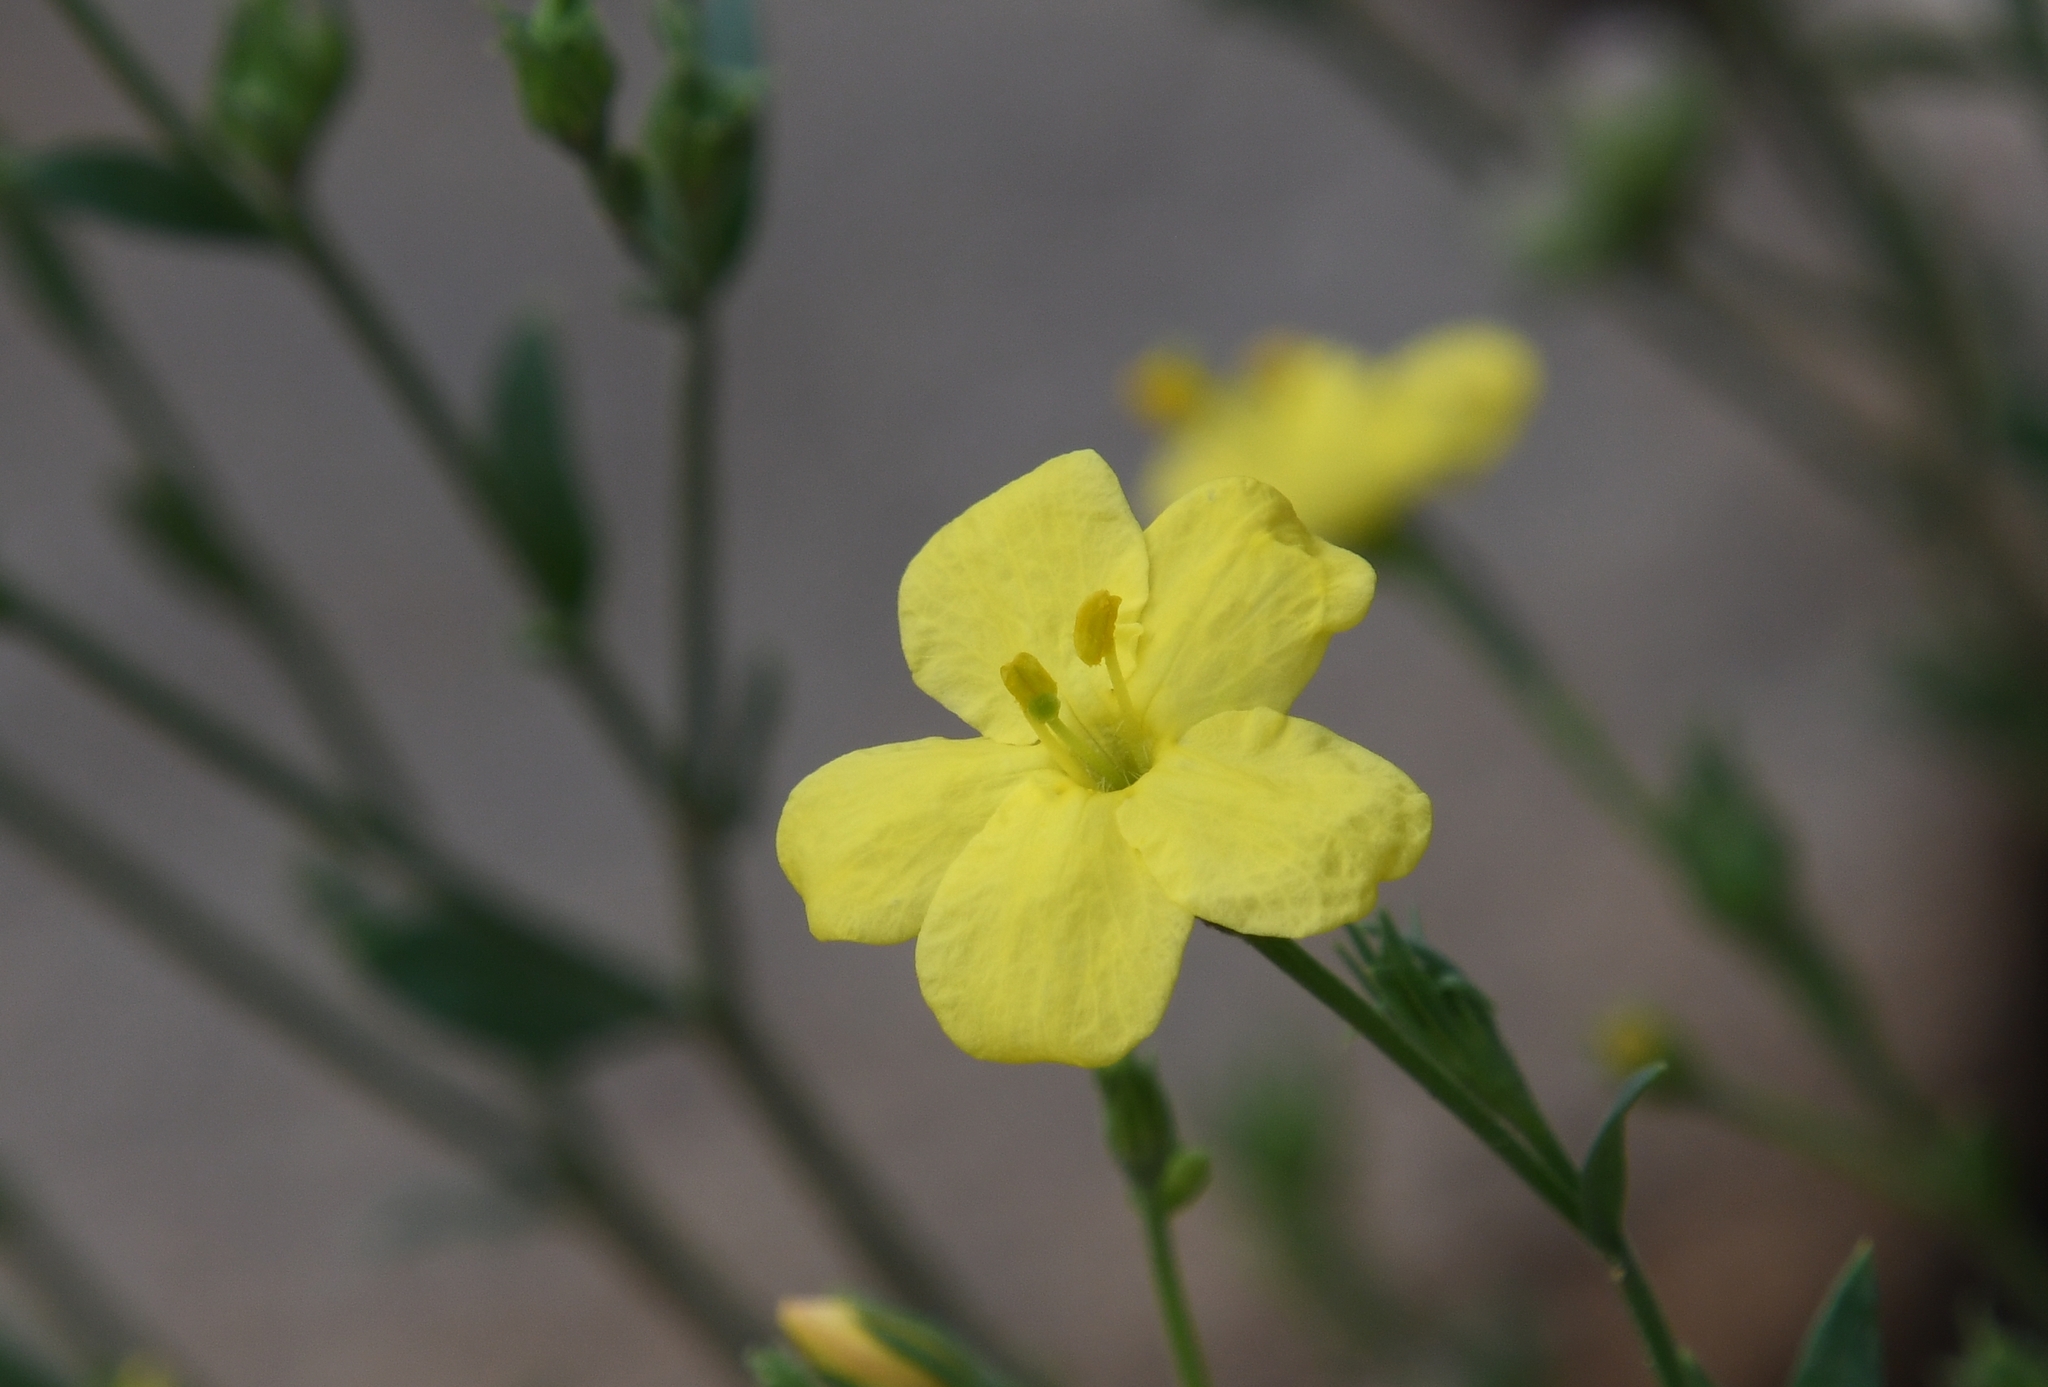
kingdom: Plantae
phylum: Tracheophyta
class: Magnoliopsida
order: Lamiales
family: Oleaceae
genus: Menodora
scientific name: Menodora scabra
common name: Rough menodora
